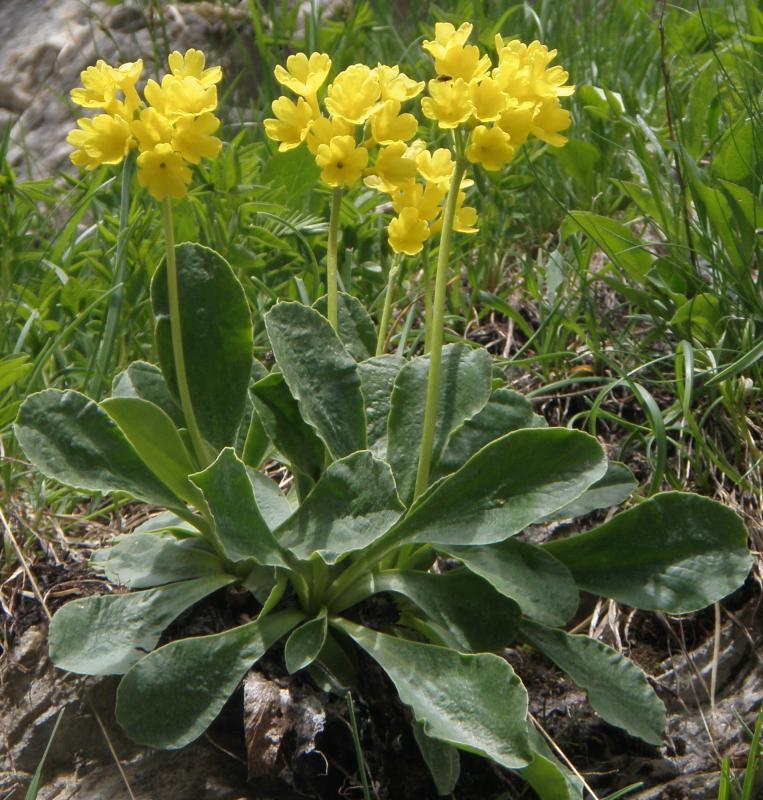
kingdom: Plantae
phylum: Tracheophyta
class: Magnoliopsida
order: Ericales
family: Primulaceae
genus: Primula
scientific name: Primula auricula
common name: Auricula
